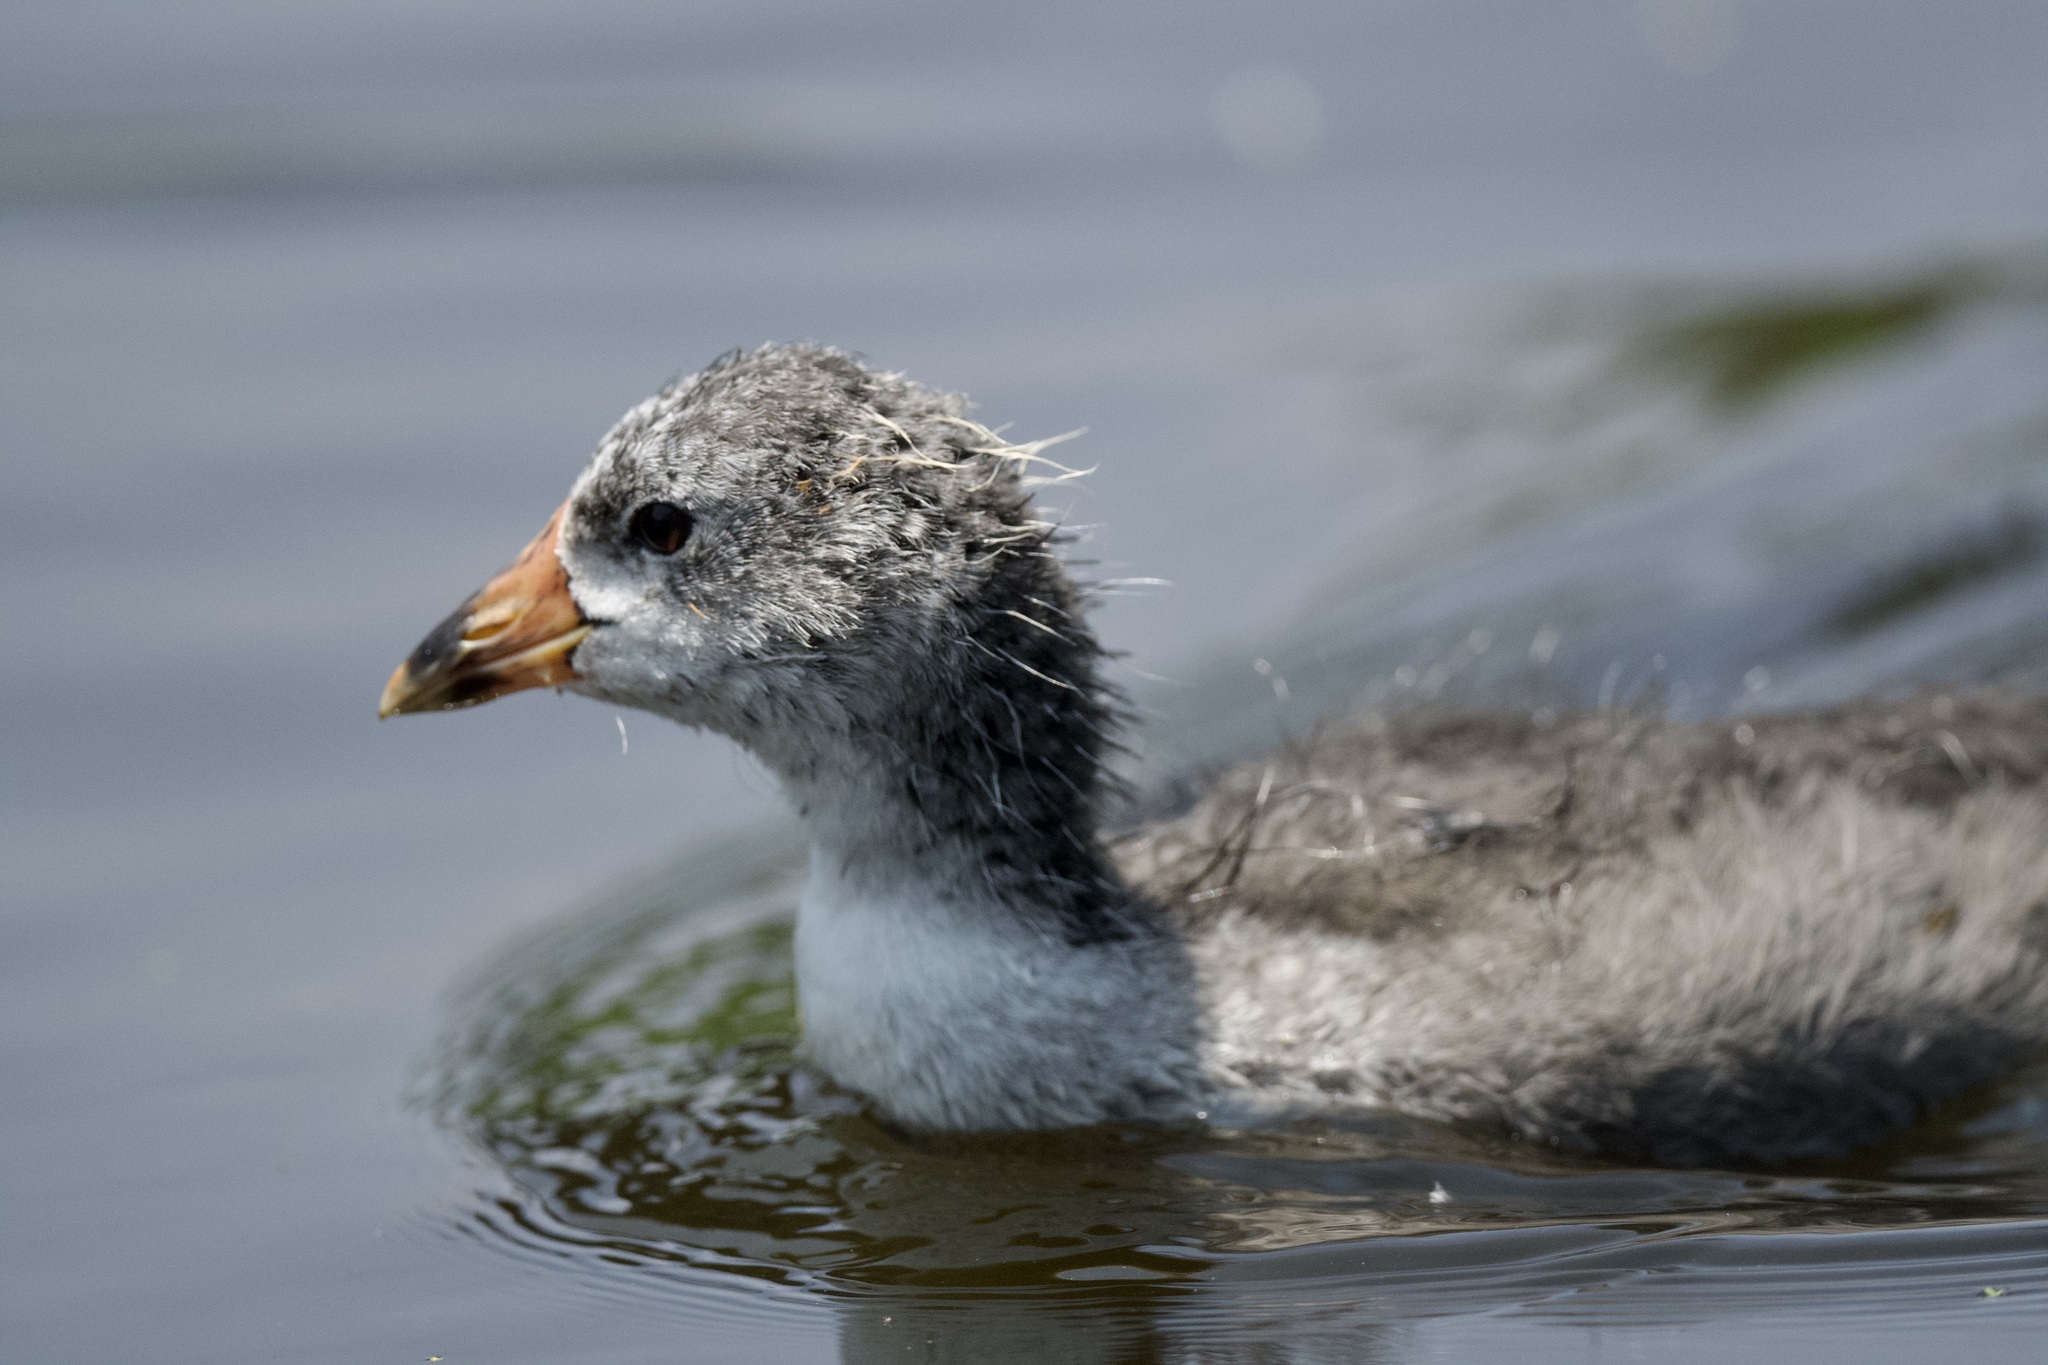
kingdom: Animalia
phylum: Chordata
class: Aves
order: Gruiformes
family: Rallidae
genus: Fulica
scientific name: Fulica americana
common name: American coot
